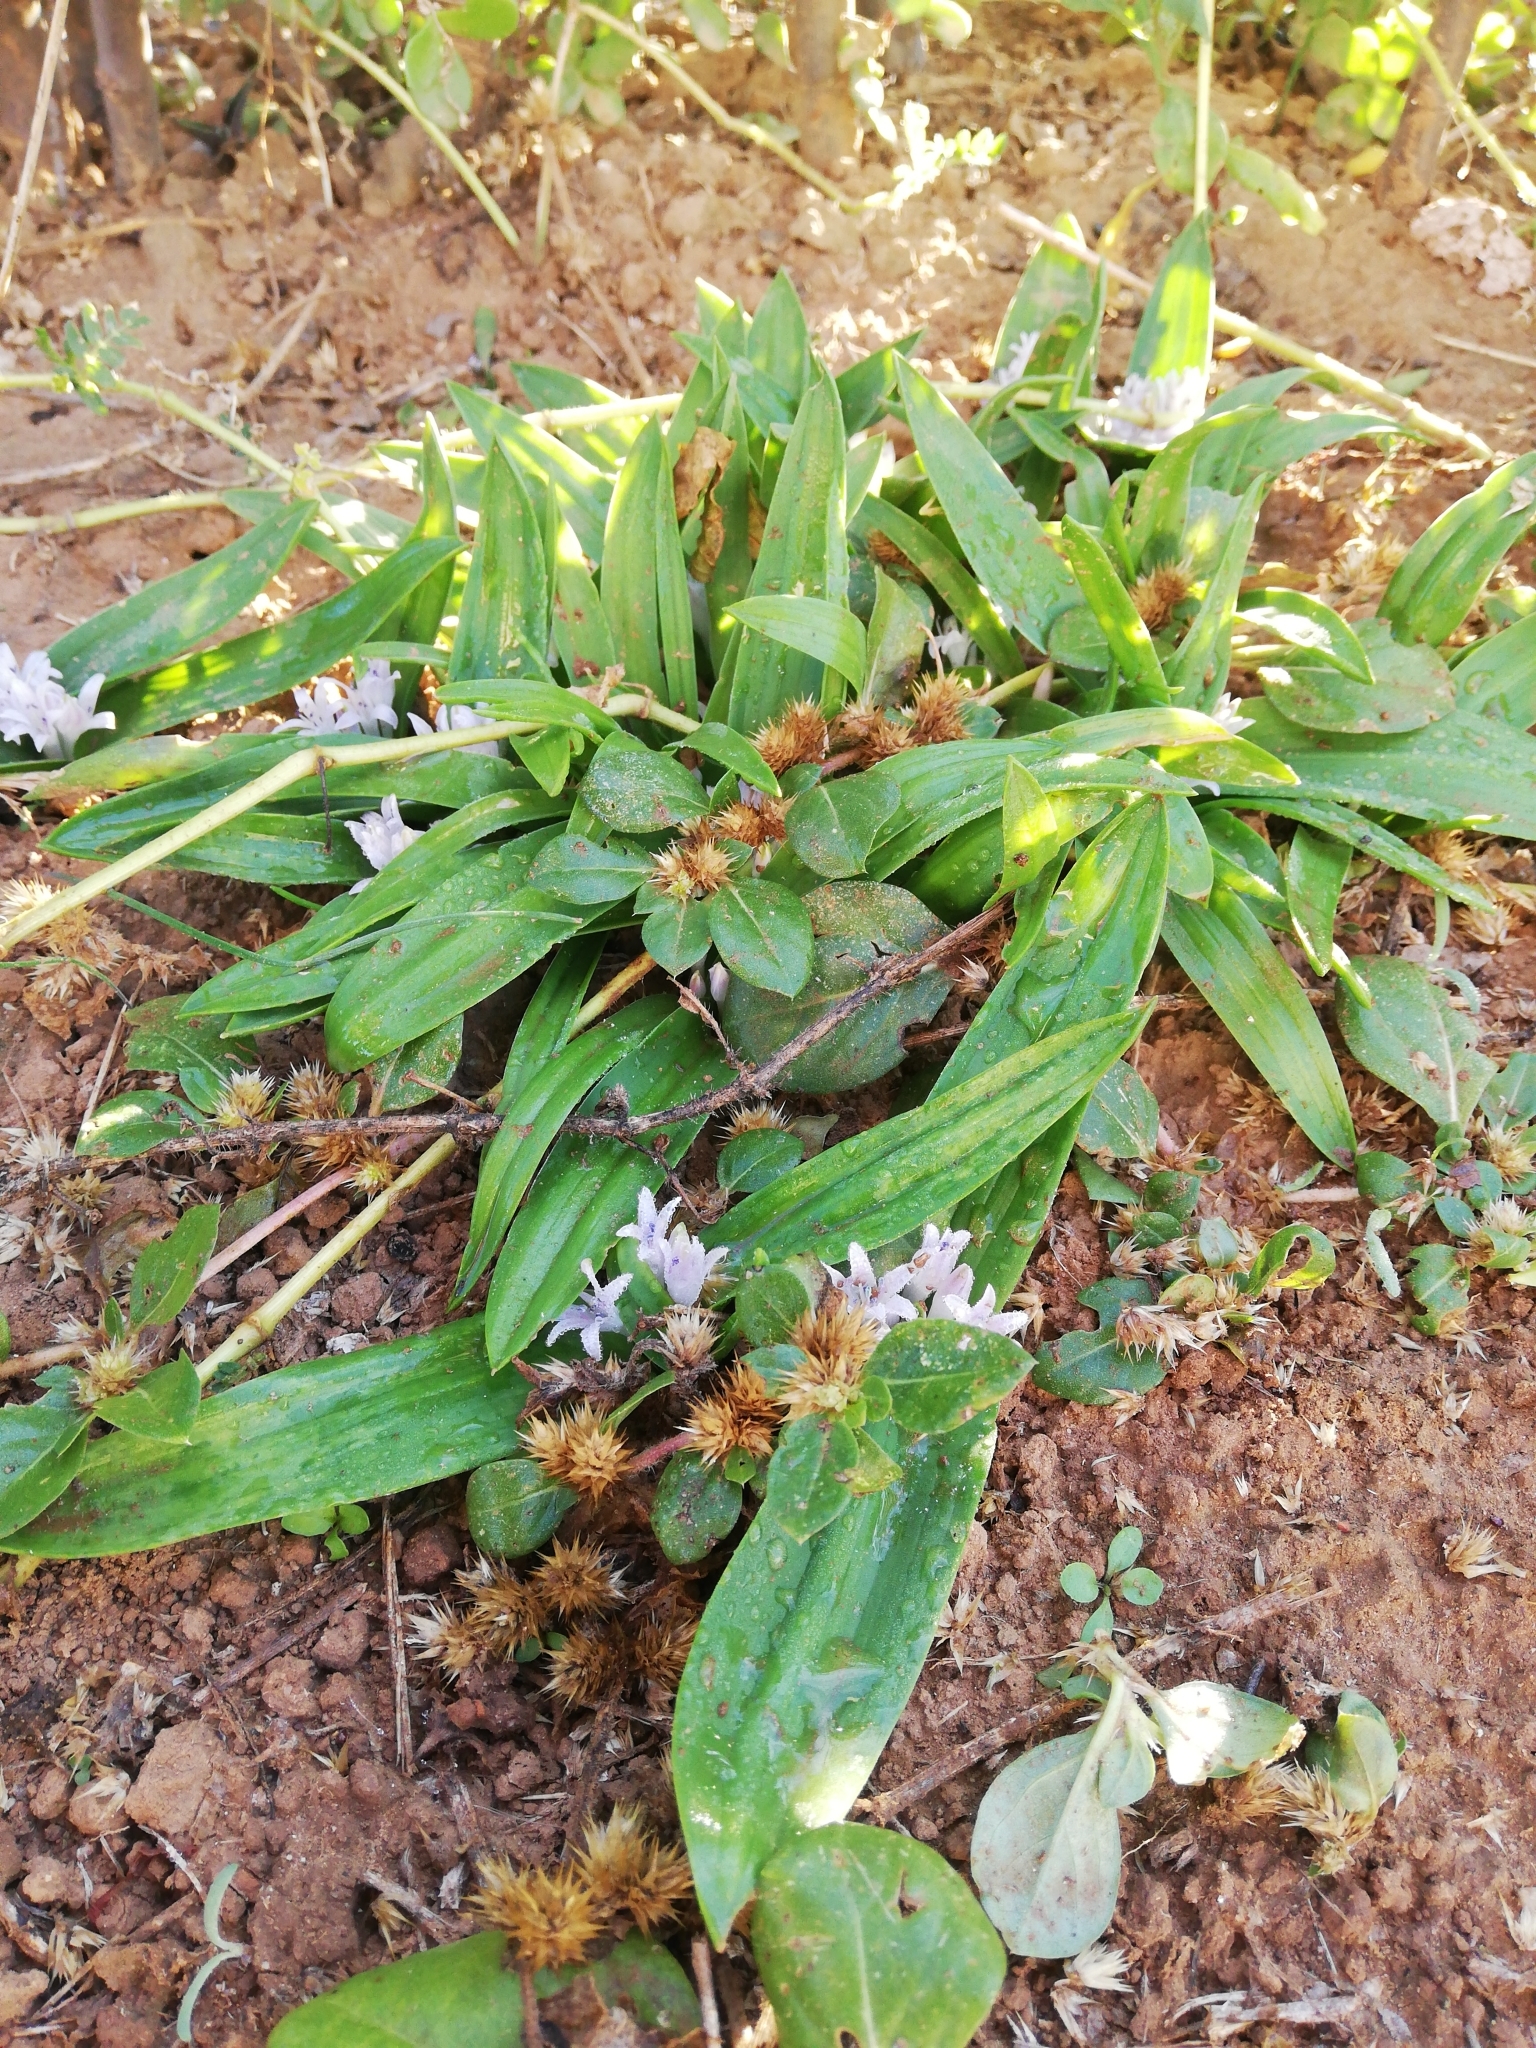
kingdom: Plantae
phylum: Tracheophyta
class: Liliopsida
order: Asparagales
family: Asparagaceae
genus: Lachenalia
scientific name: Lachenalia ensifolia
